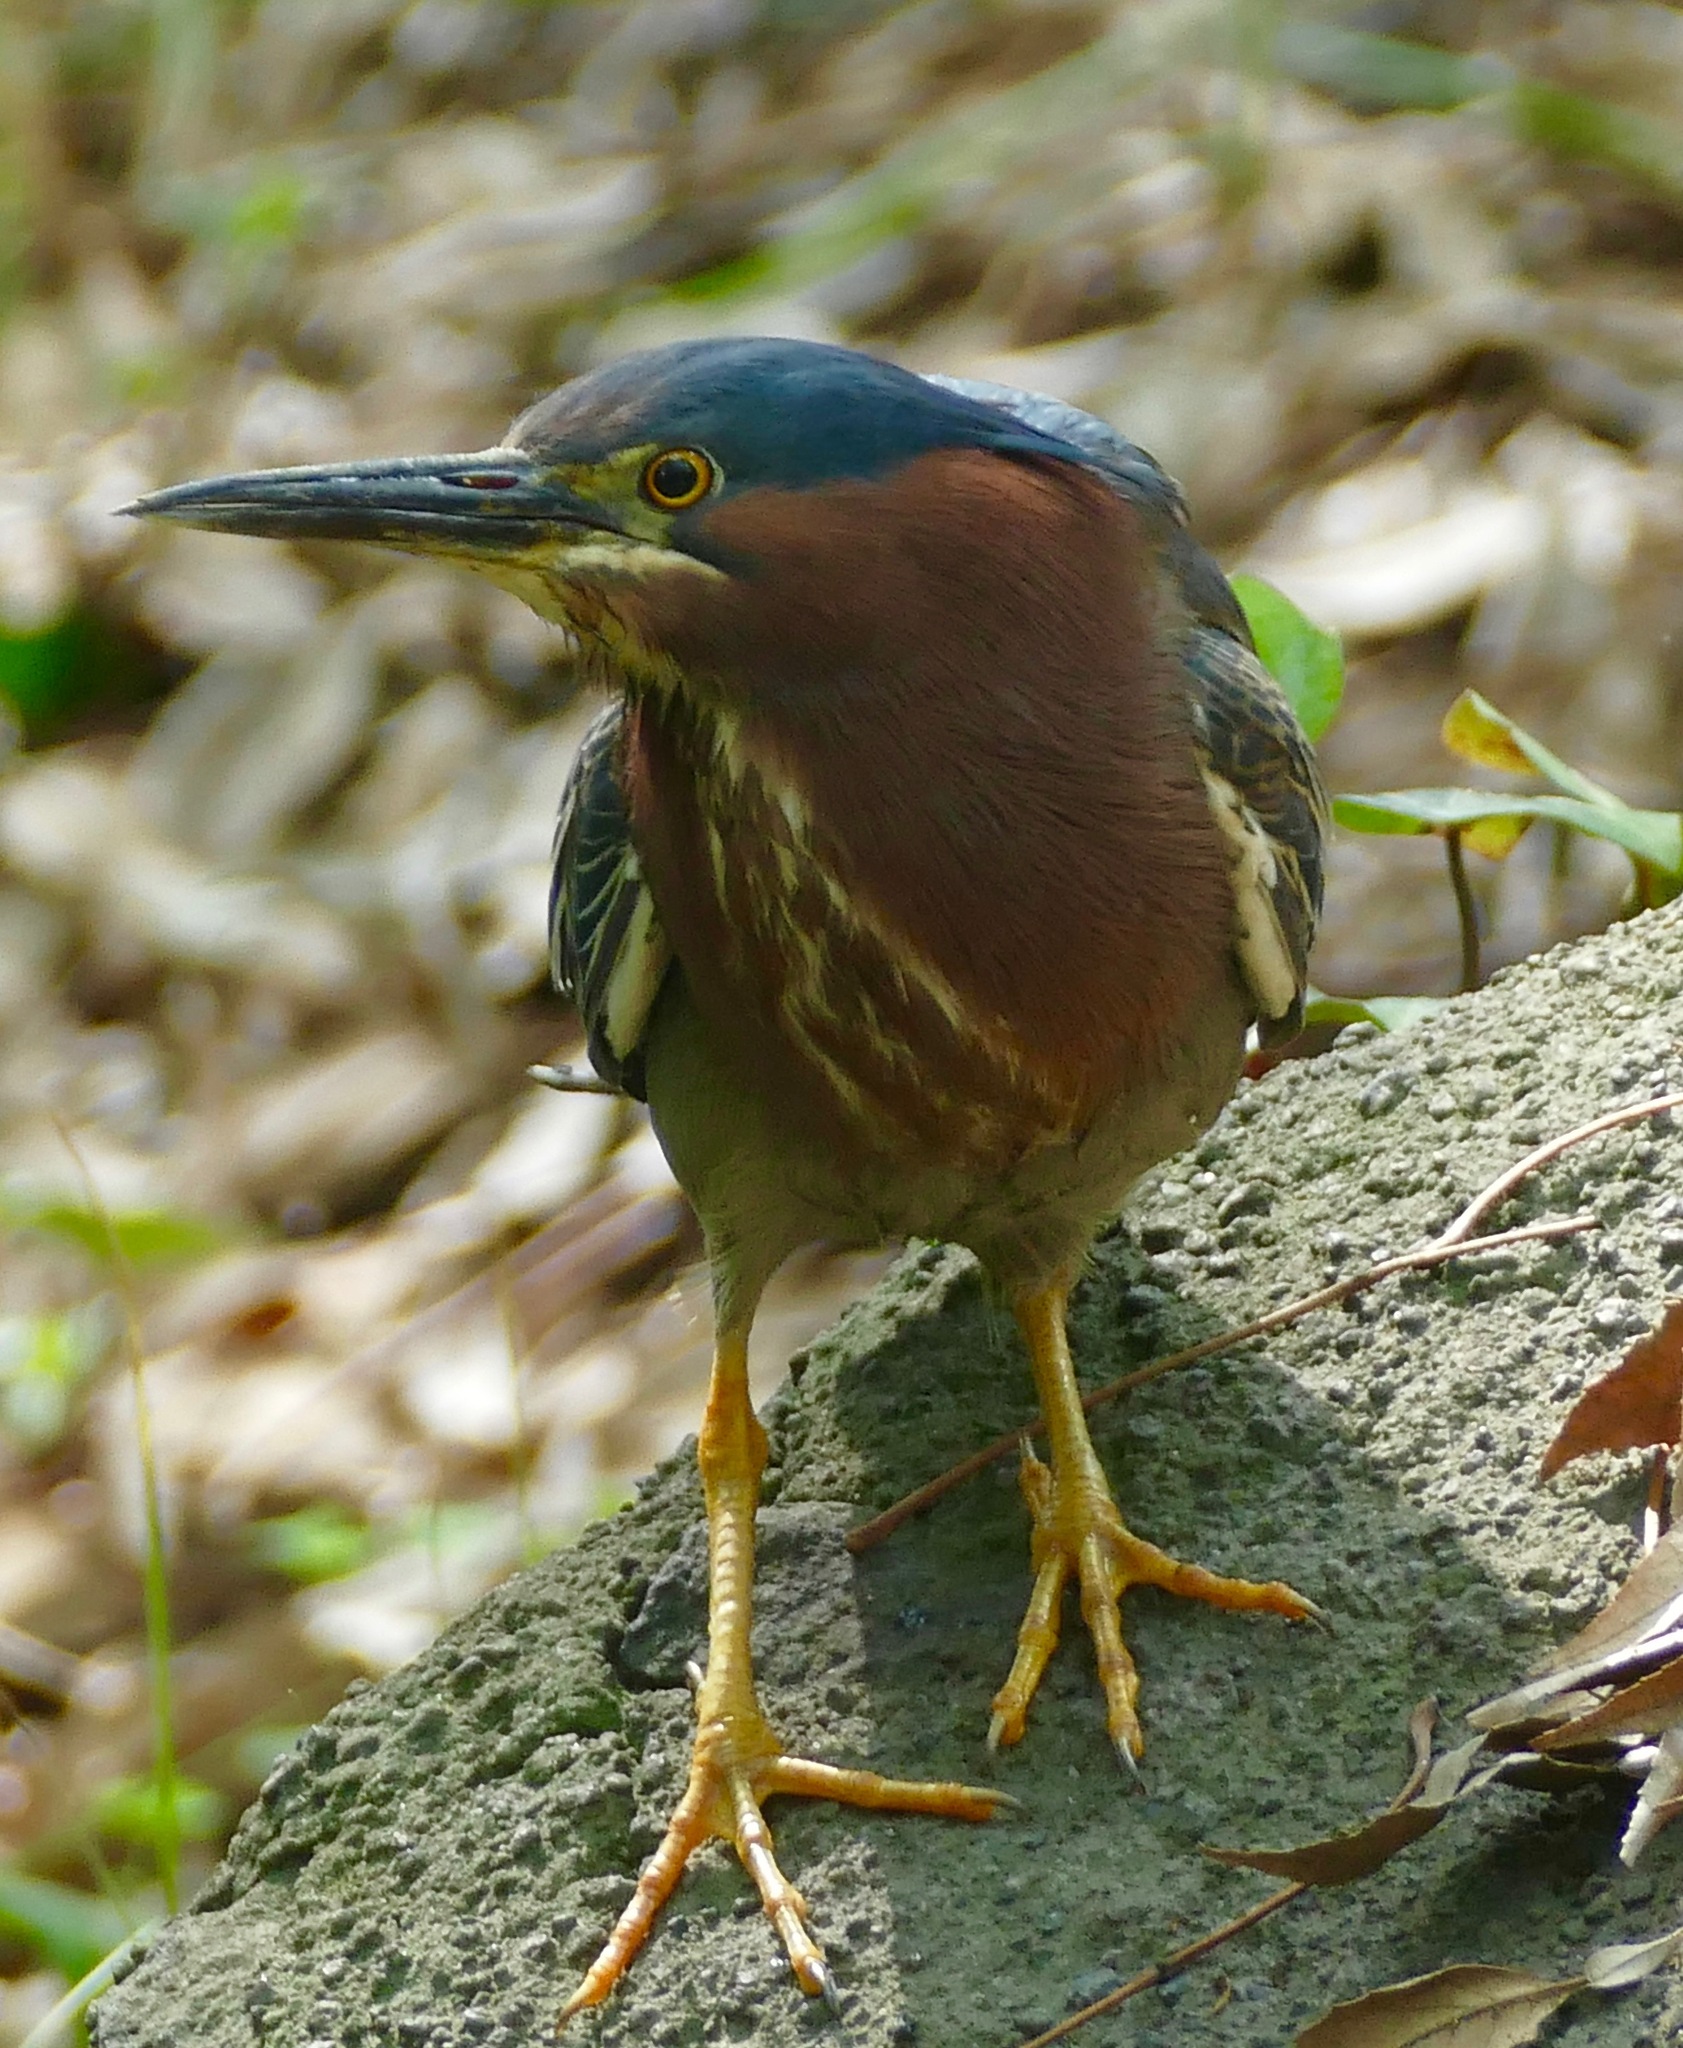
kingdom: Animalia
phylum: Chordata
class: Aves
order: Pelecaniformes
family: Ardeidae
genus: Butorides
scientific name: Butorides virescens
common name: Green heron
